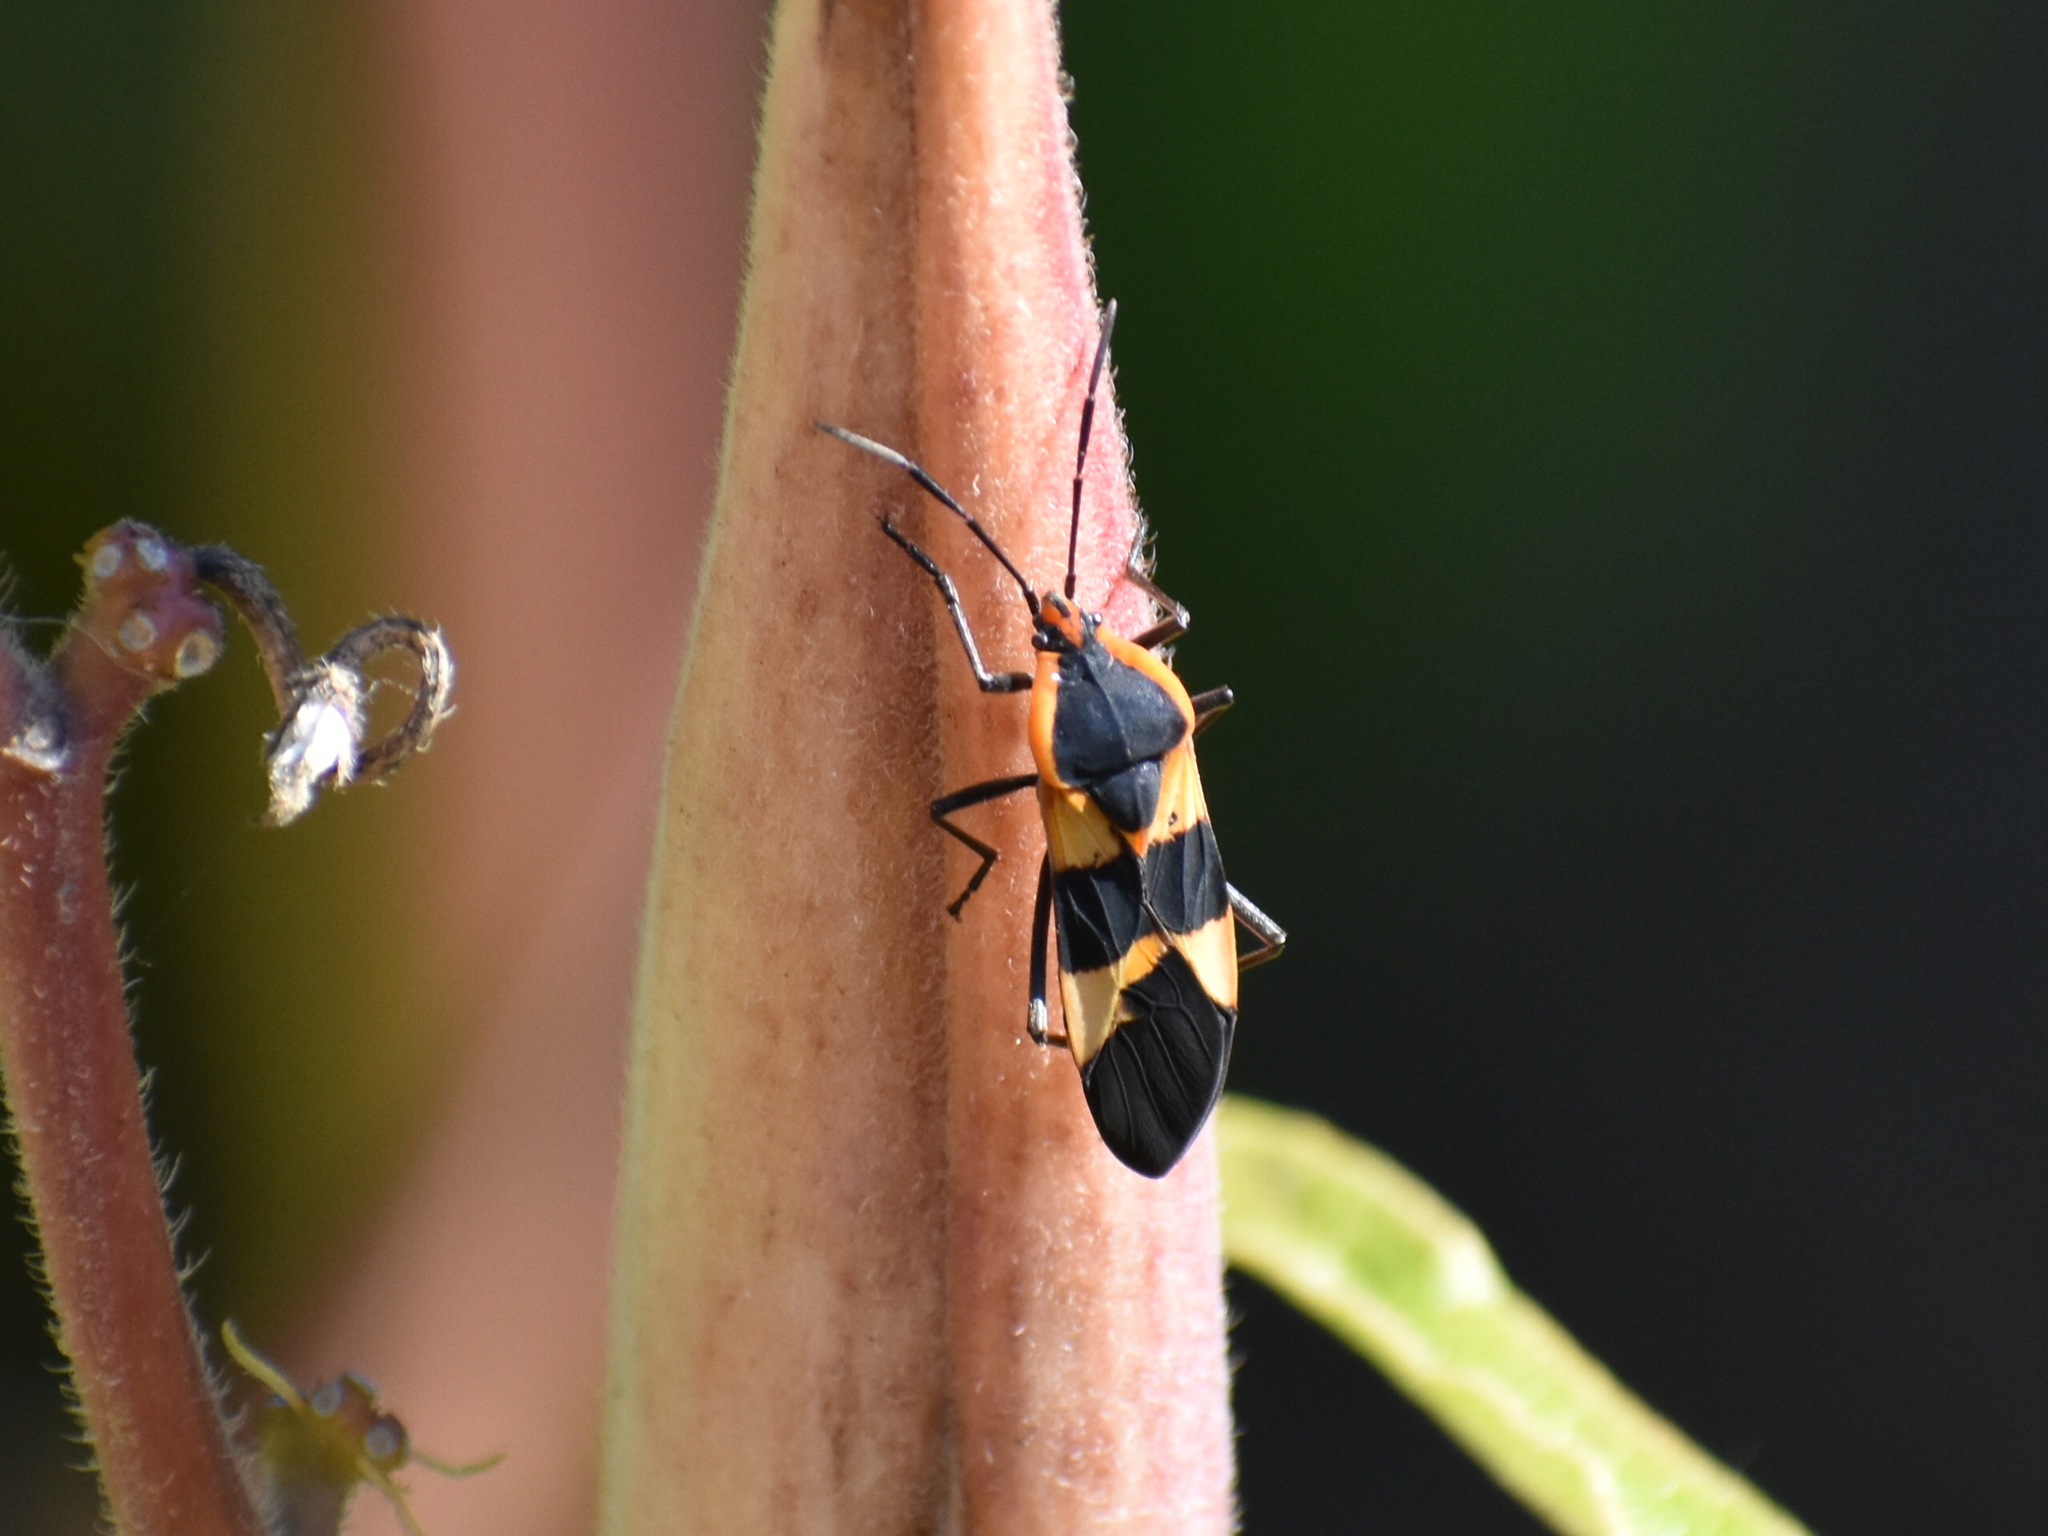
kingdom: Animalia
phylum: Arthropoda
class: Insecta
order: Hemiptera
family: Lygaeidae
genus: Oncopeltus
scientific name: Oncopeltus fasciatus
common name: Large milkweed bug
